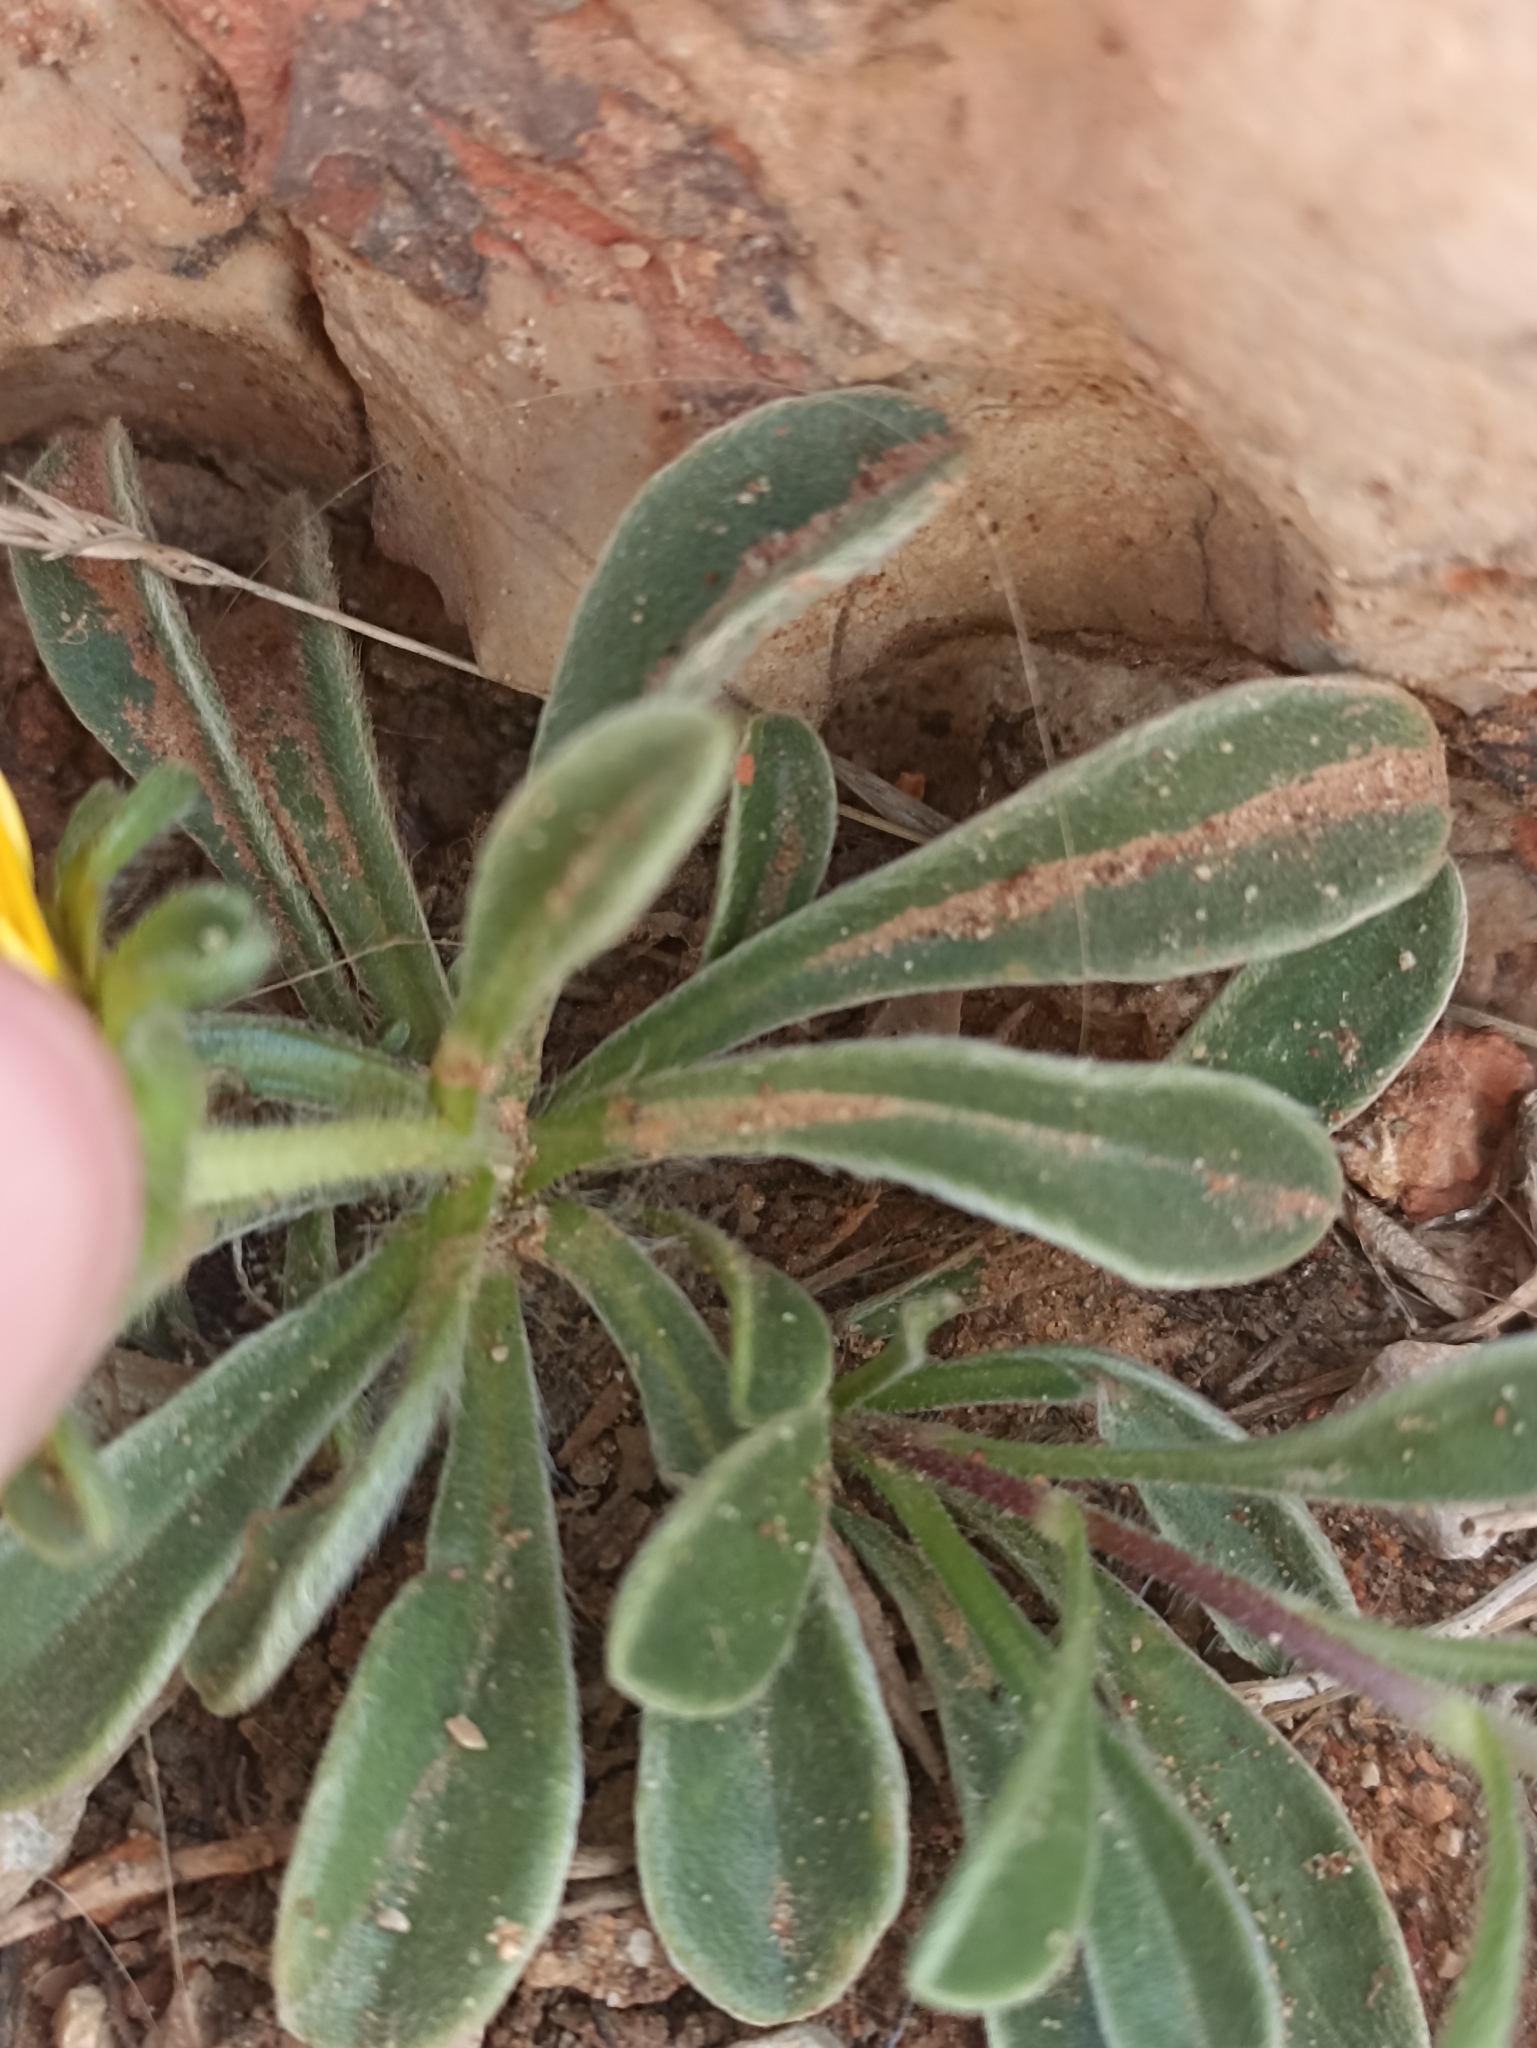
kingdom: Plantae
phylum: Tracheophyta
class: Magnoliopsida
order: Asterales
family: Asteraceae
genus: Pallenis
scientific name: Pallenis maritima
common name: Golden coin daisy
